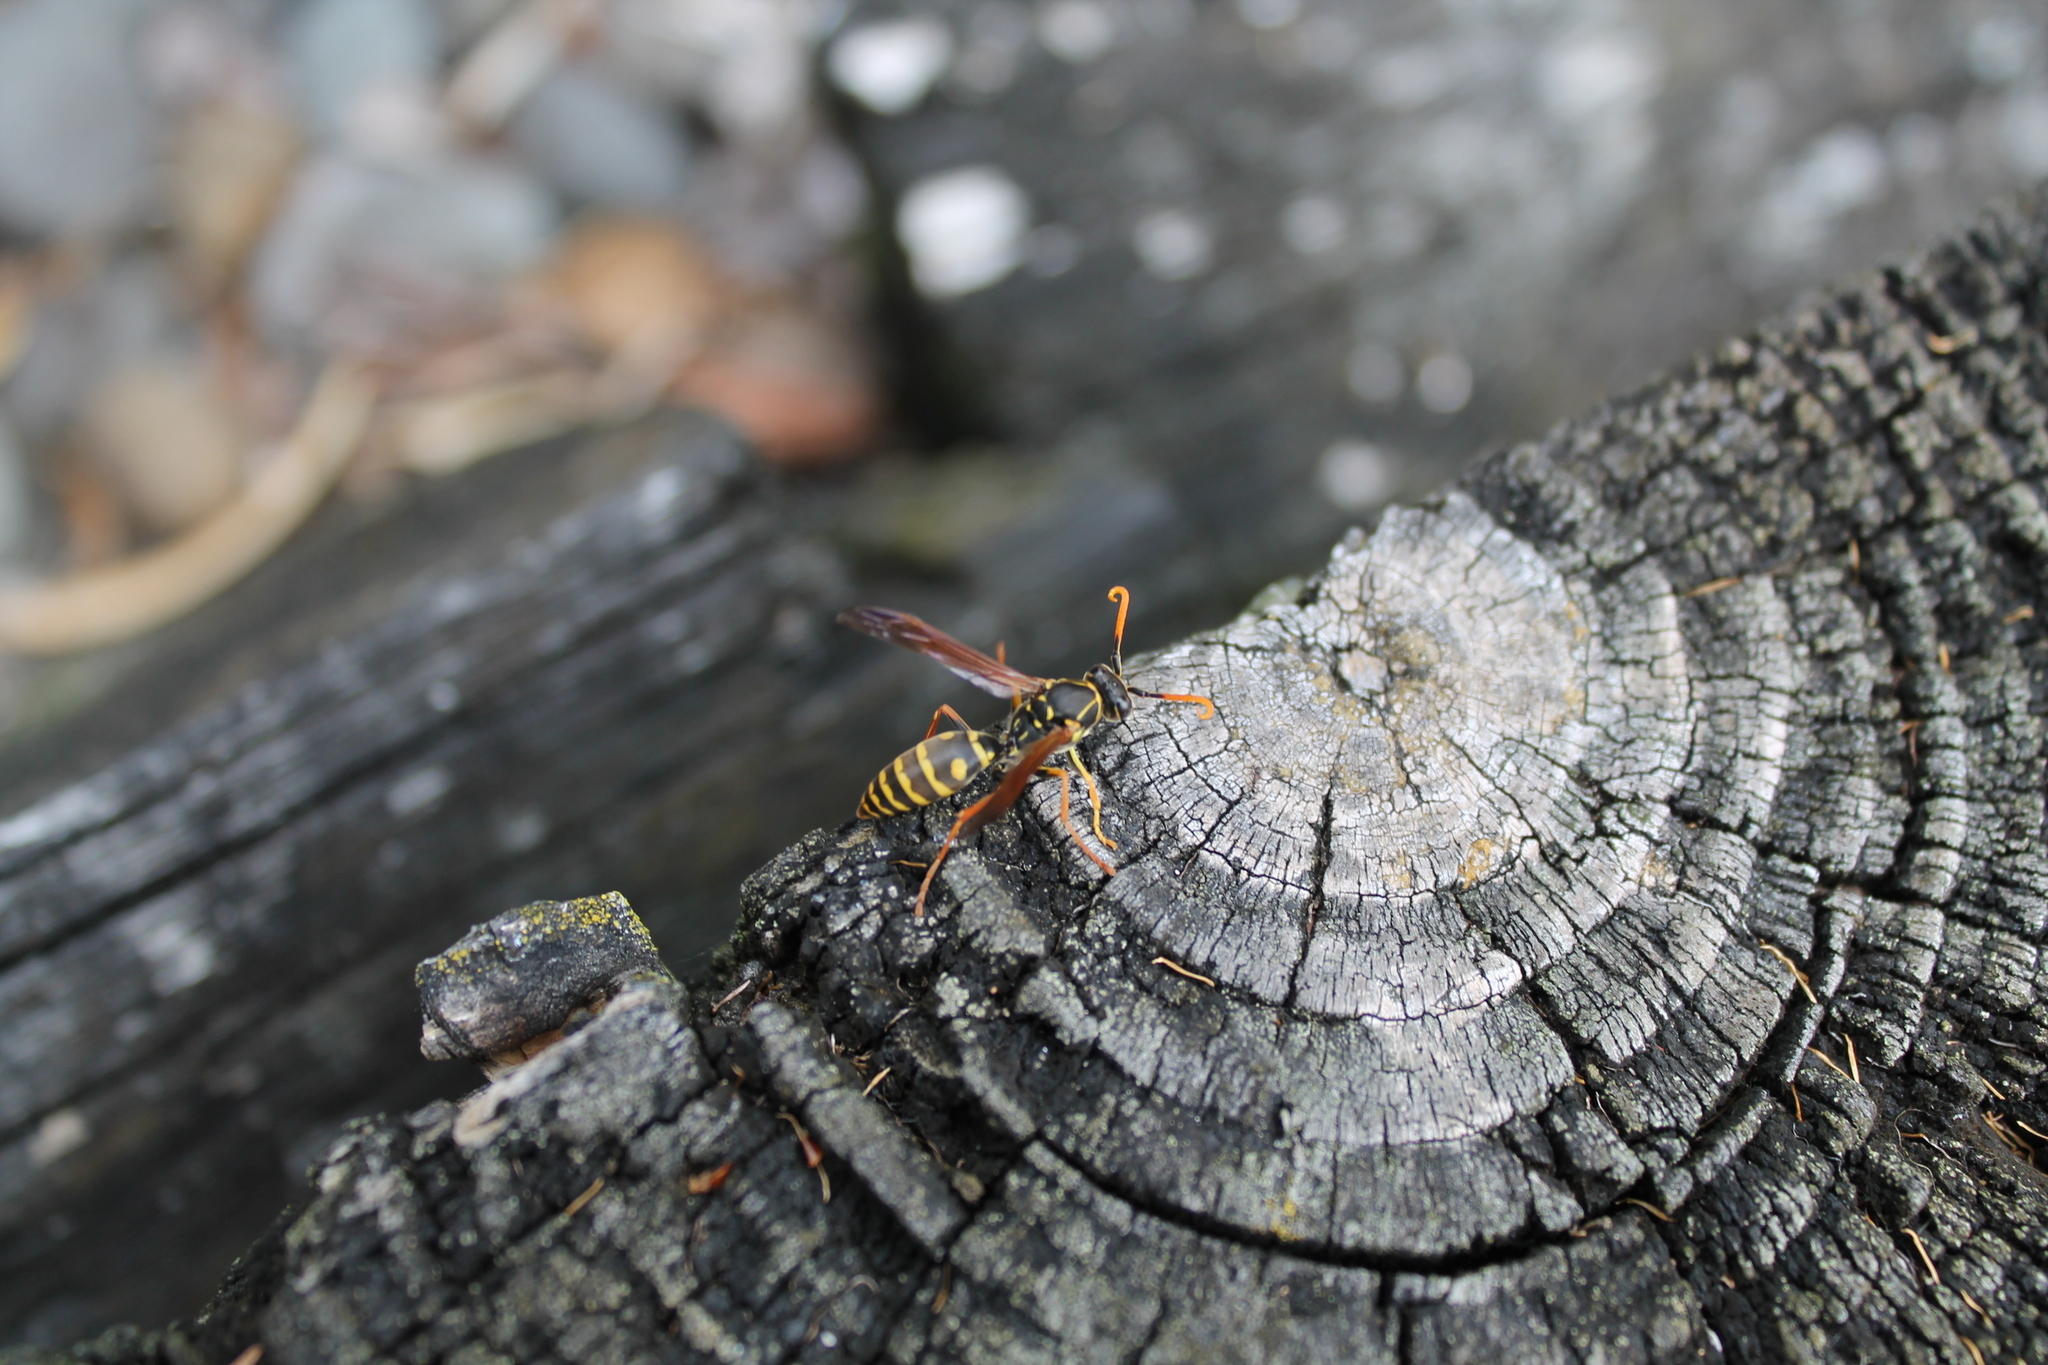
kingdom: Animalia
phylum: Arthropoda
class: Insecta
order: Hymenoptera
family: Eumenidae
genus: Polistes
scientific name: Polistes chinensis
